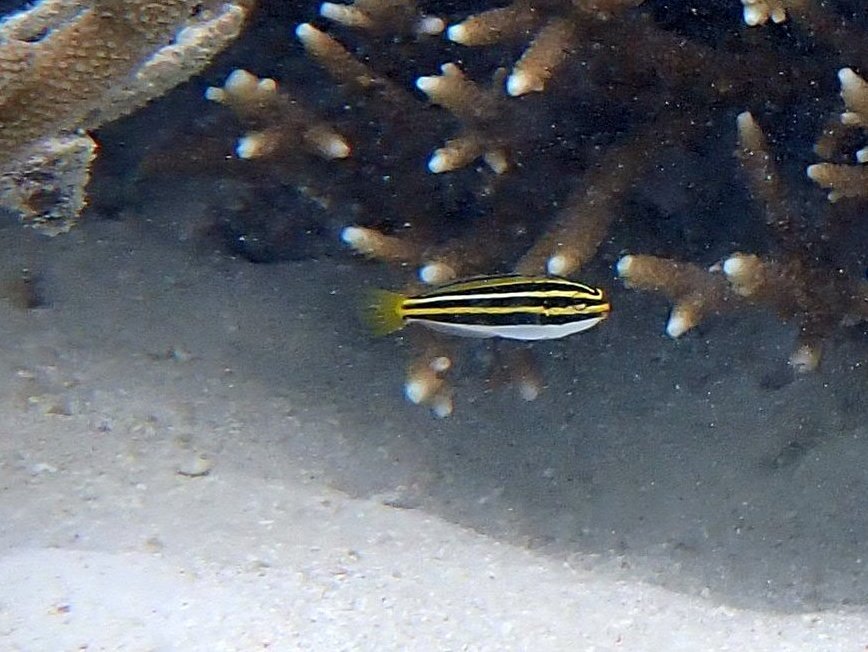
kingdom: Animalia
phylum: Chordata
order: Perciformes
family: Blenniidae
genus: Meiacanthus
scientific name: Meiacanthus lineatus
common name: Lined fangblenny
